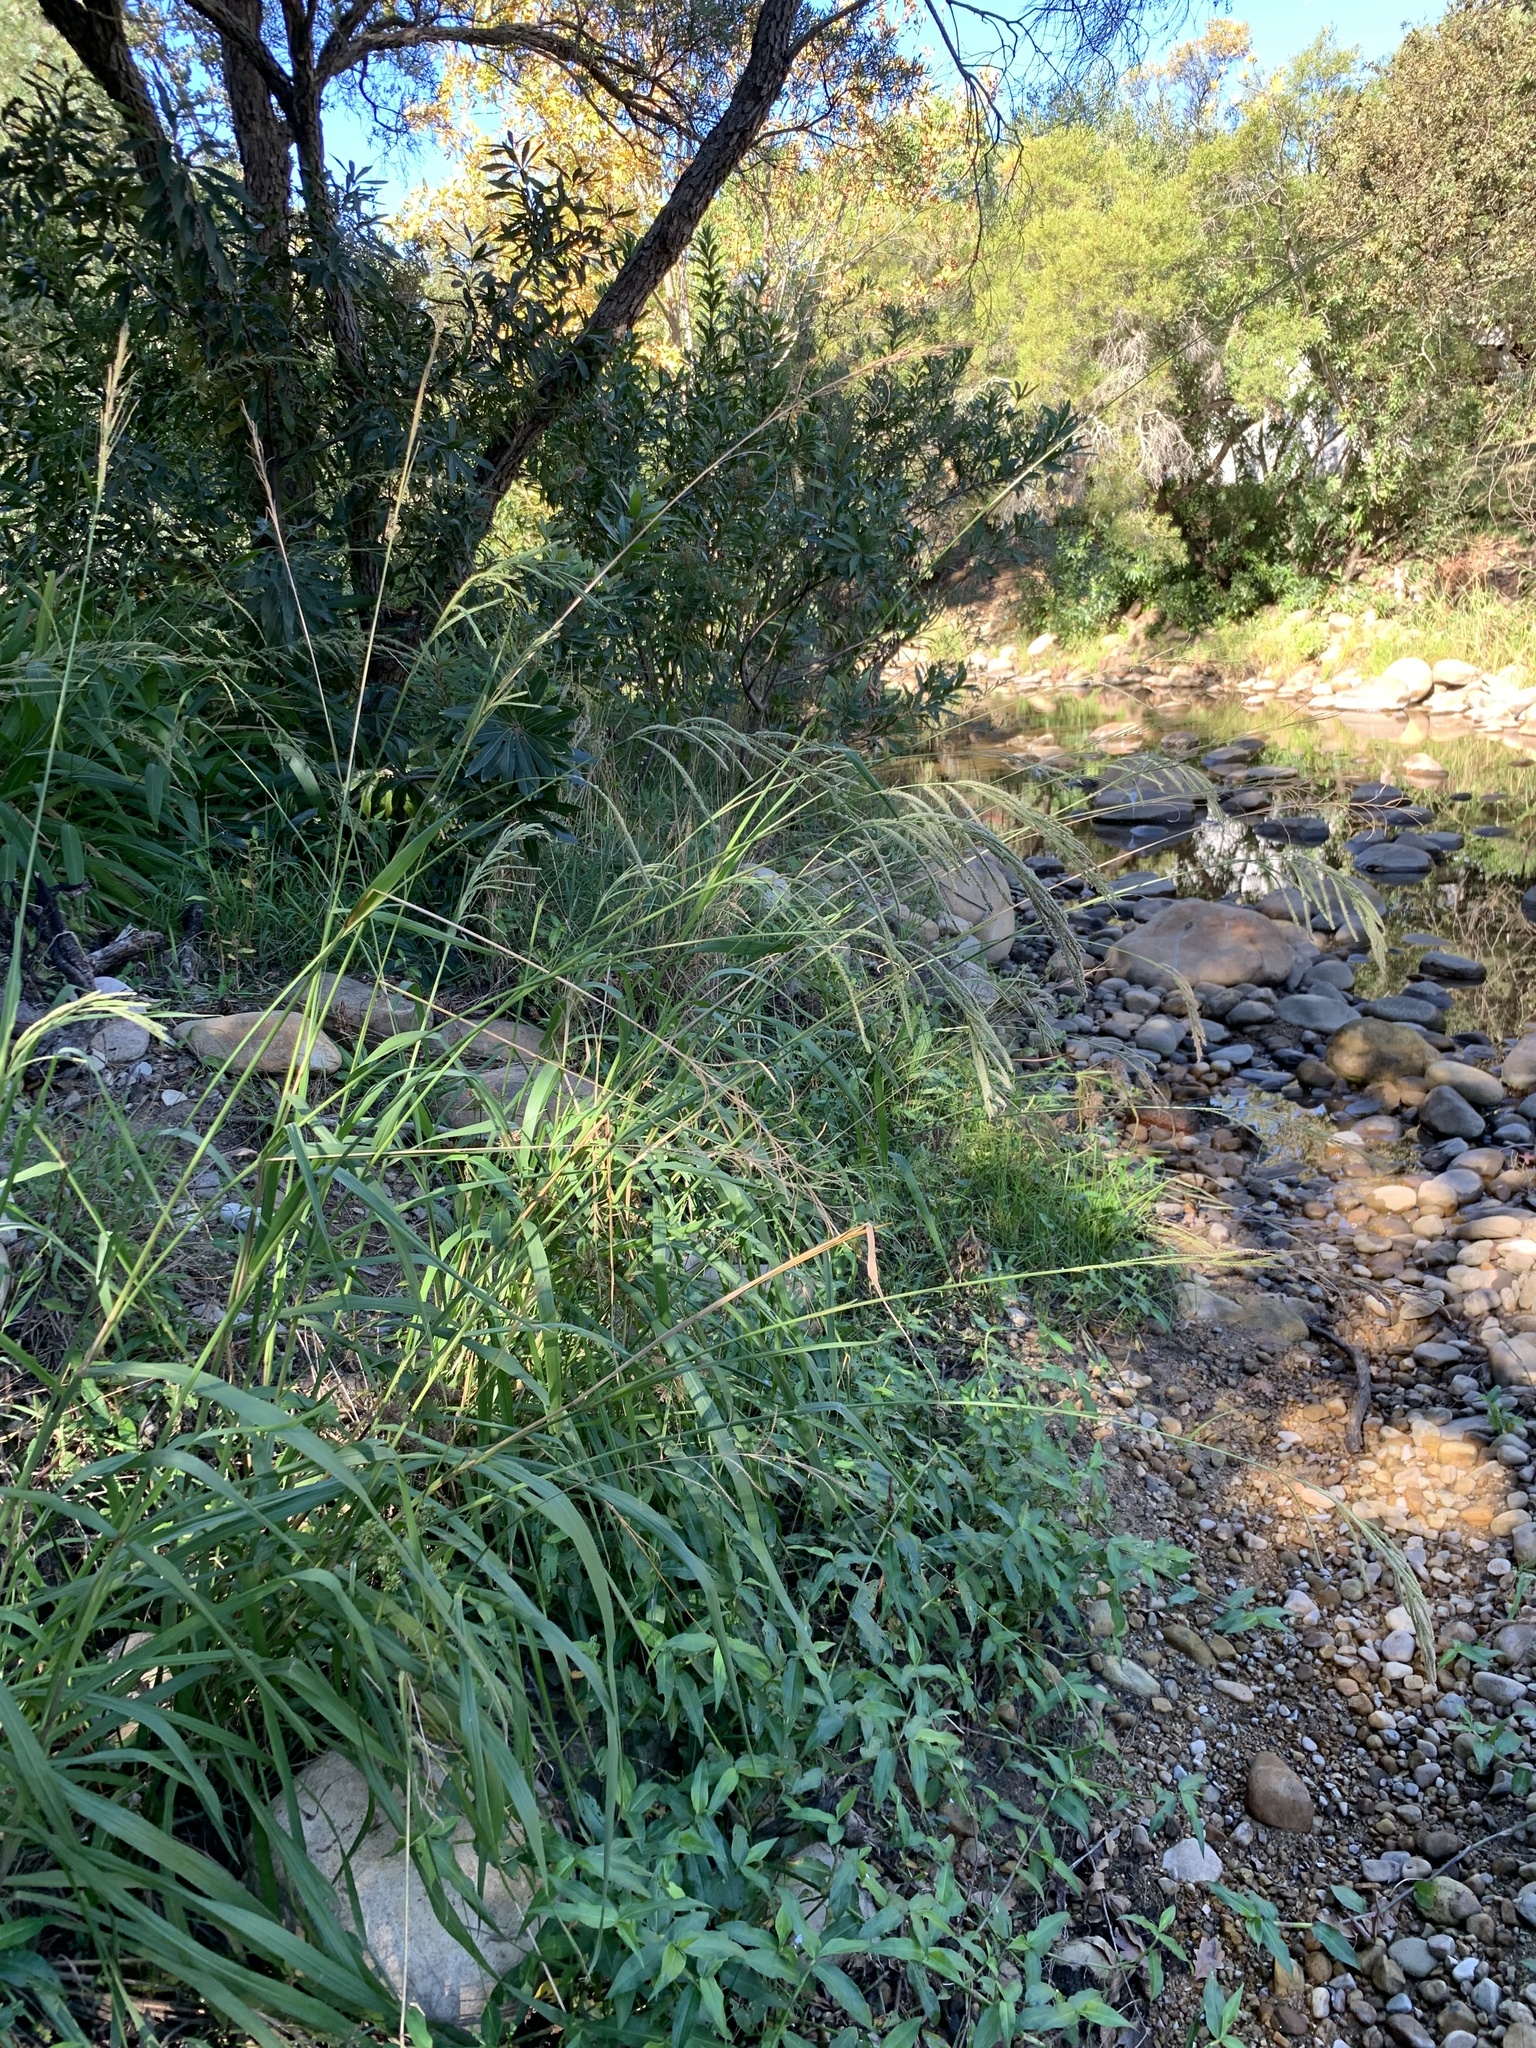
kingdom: Plantae
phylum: Tracheophyta
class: Liliopsida
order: Poales
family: Poaceae
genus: Paspalum
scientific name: Paspalum urvillei
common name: Vasey's grass
